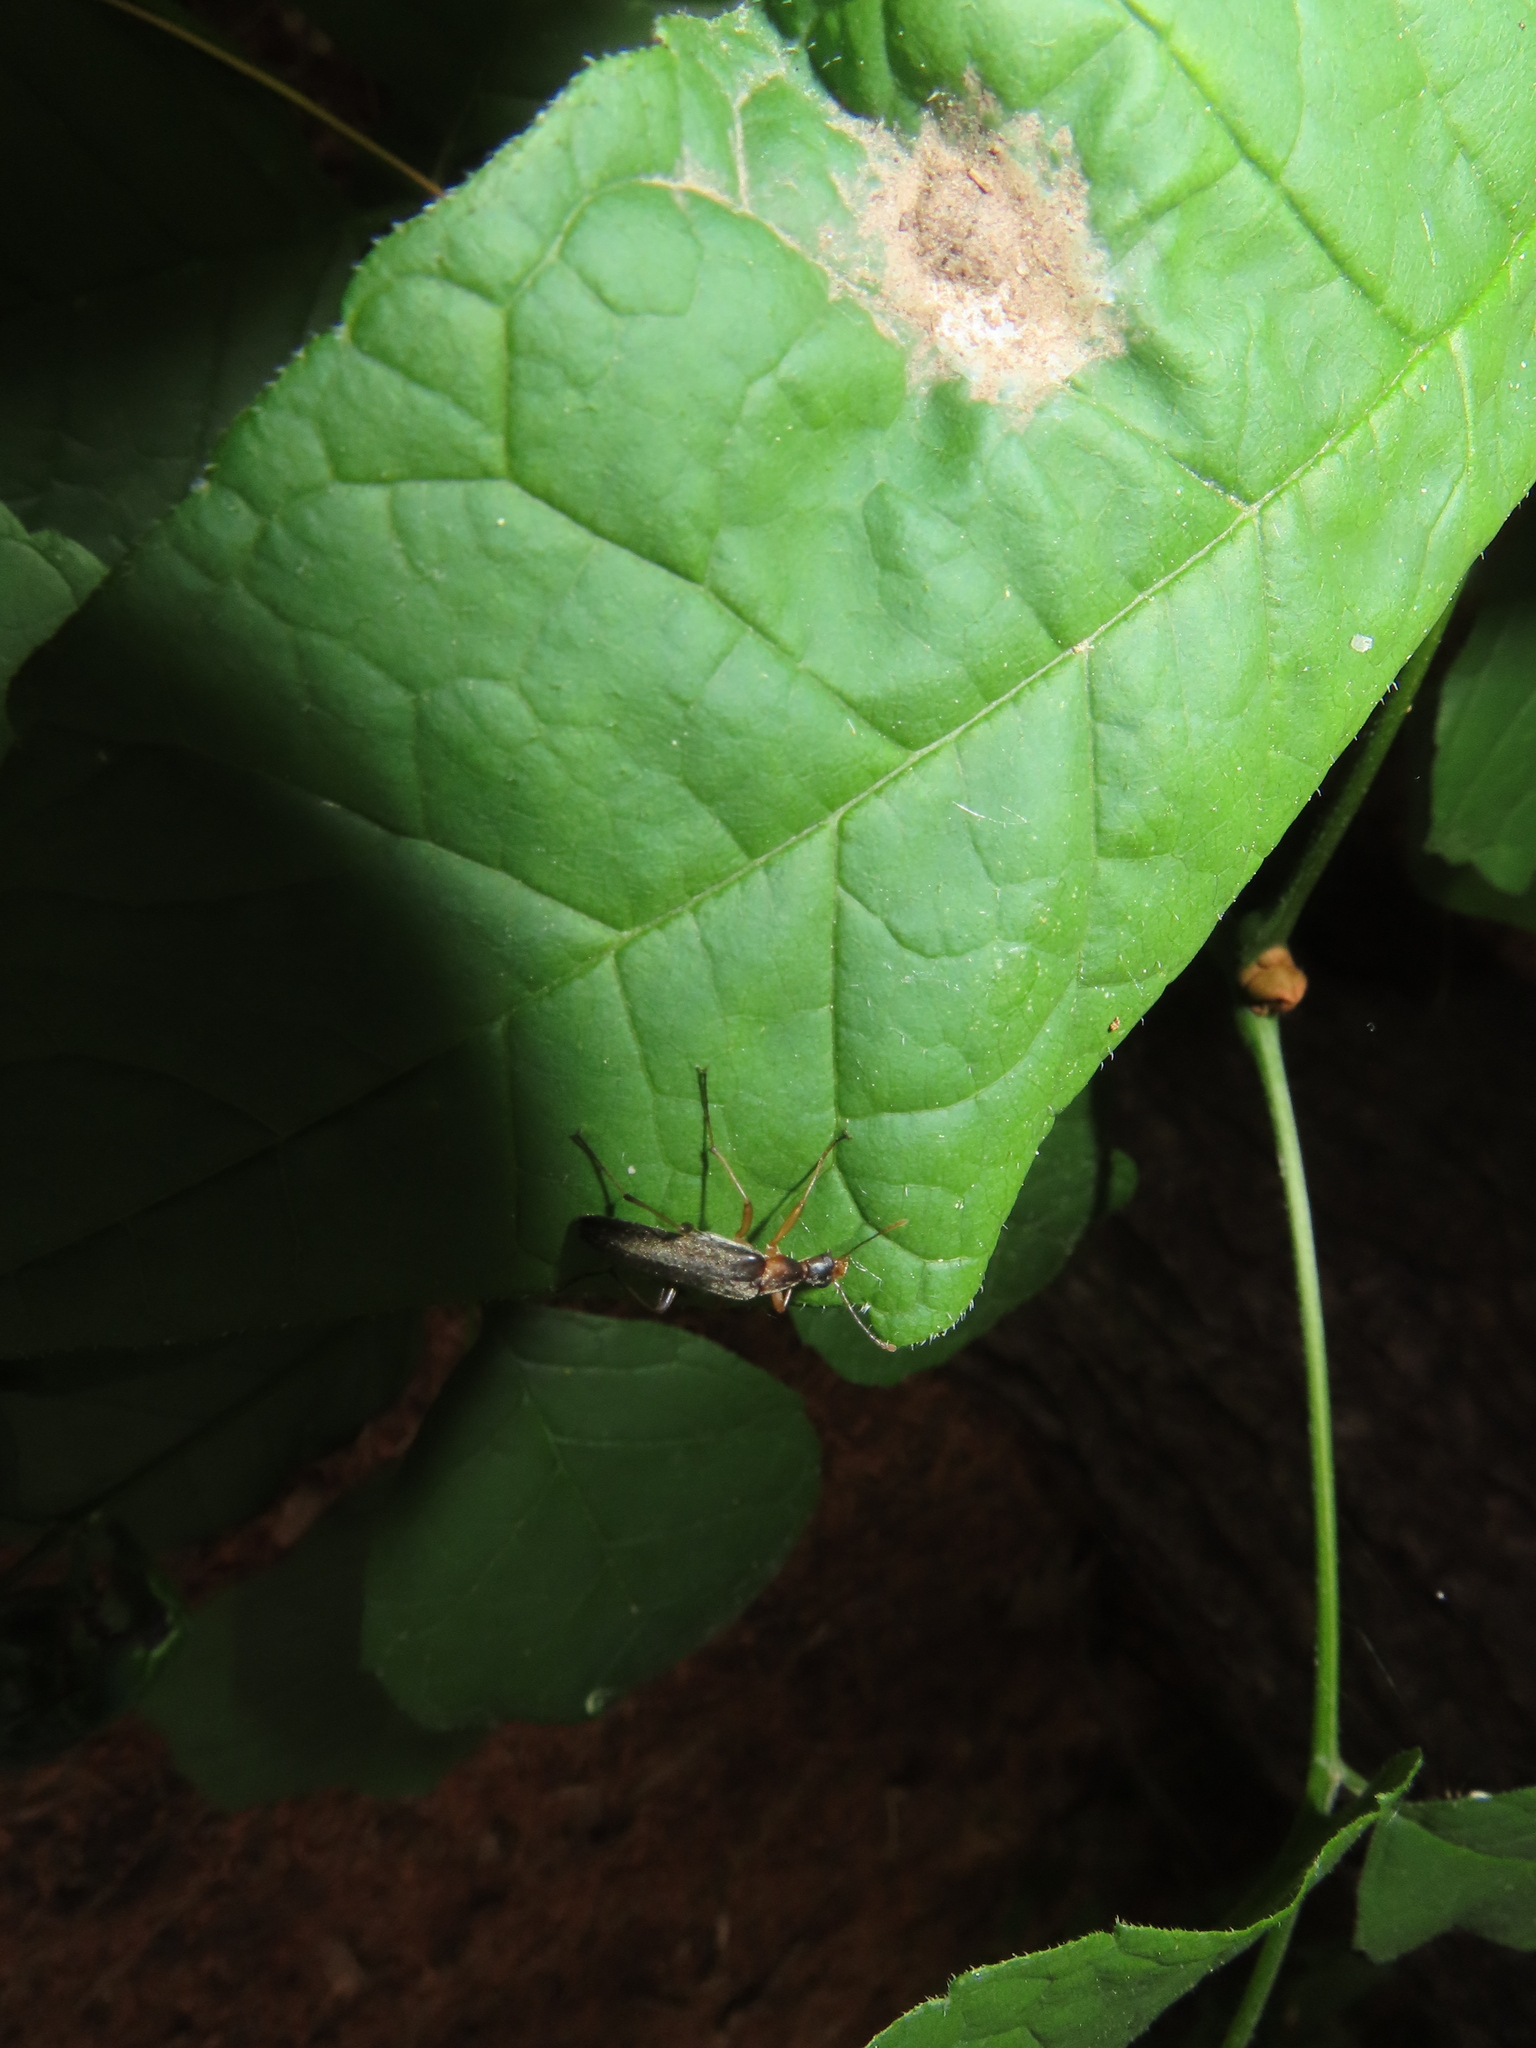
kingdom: Animalia
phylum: Arthropoda
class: Insecta
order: Coleoptera
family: Stenotrachelidae
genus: Cephaloon
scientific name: Cephaloon lepturides
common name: False leptura beetle
